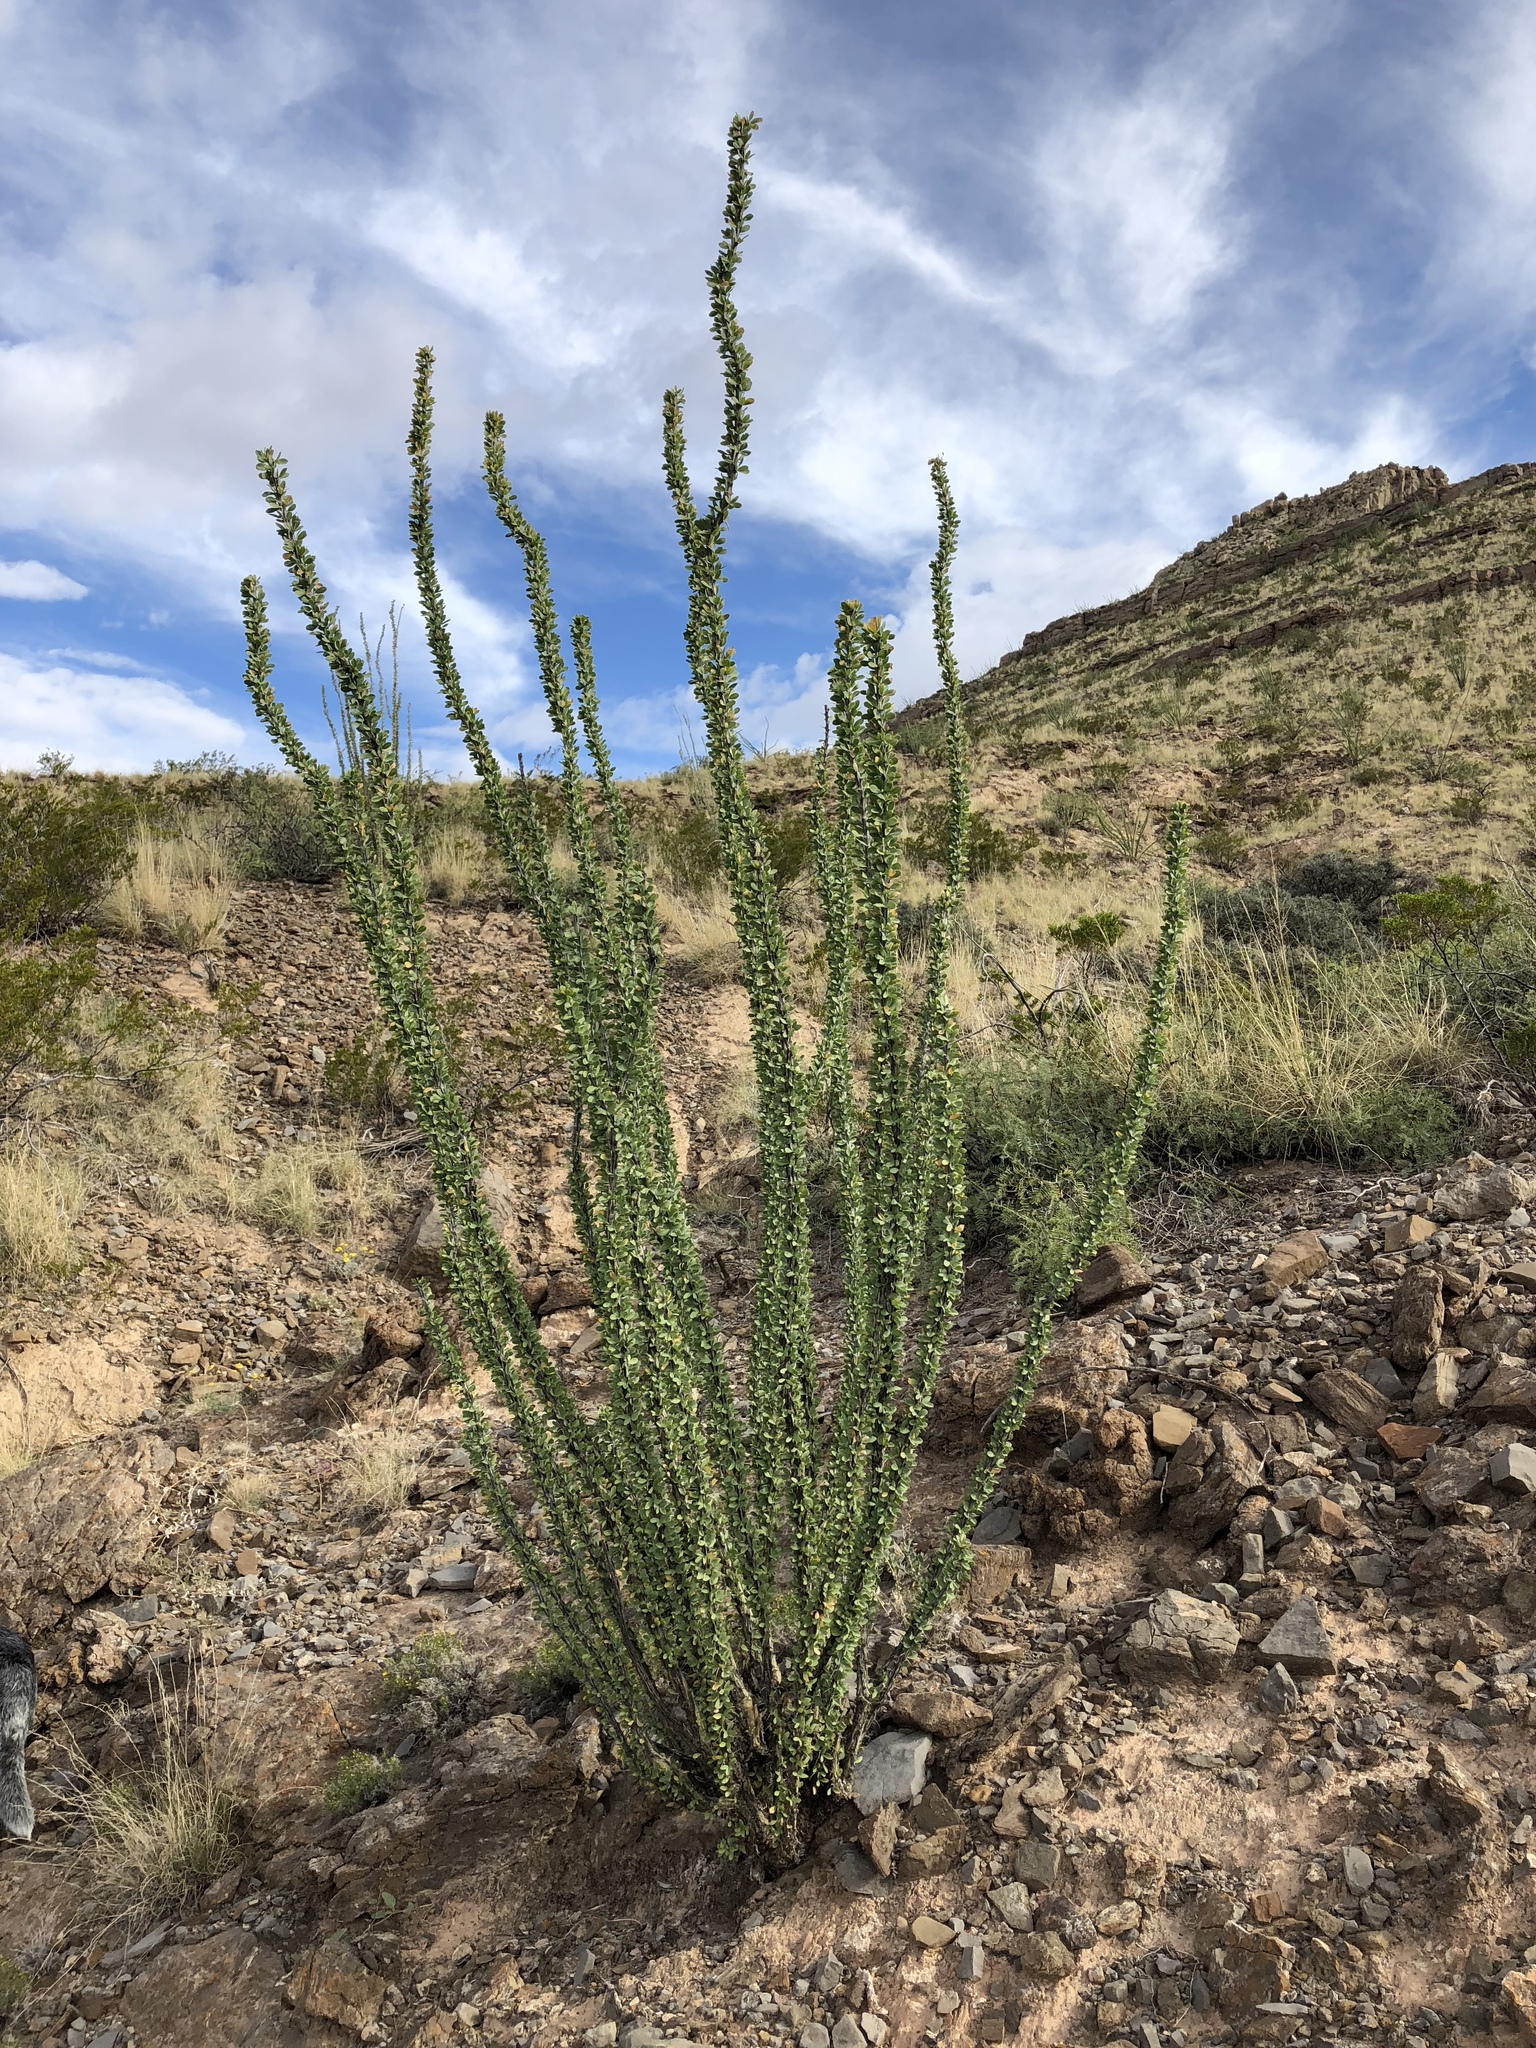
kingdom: Plantae
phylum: Tracheophyta
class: Magnoliopsida
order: Ericales
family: Fouquieriaceae
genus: Fouquieria
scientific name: Fouquieria splendens
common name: Vine-cactus
